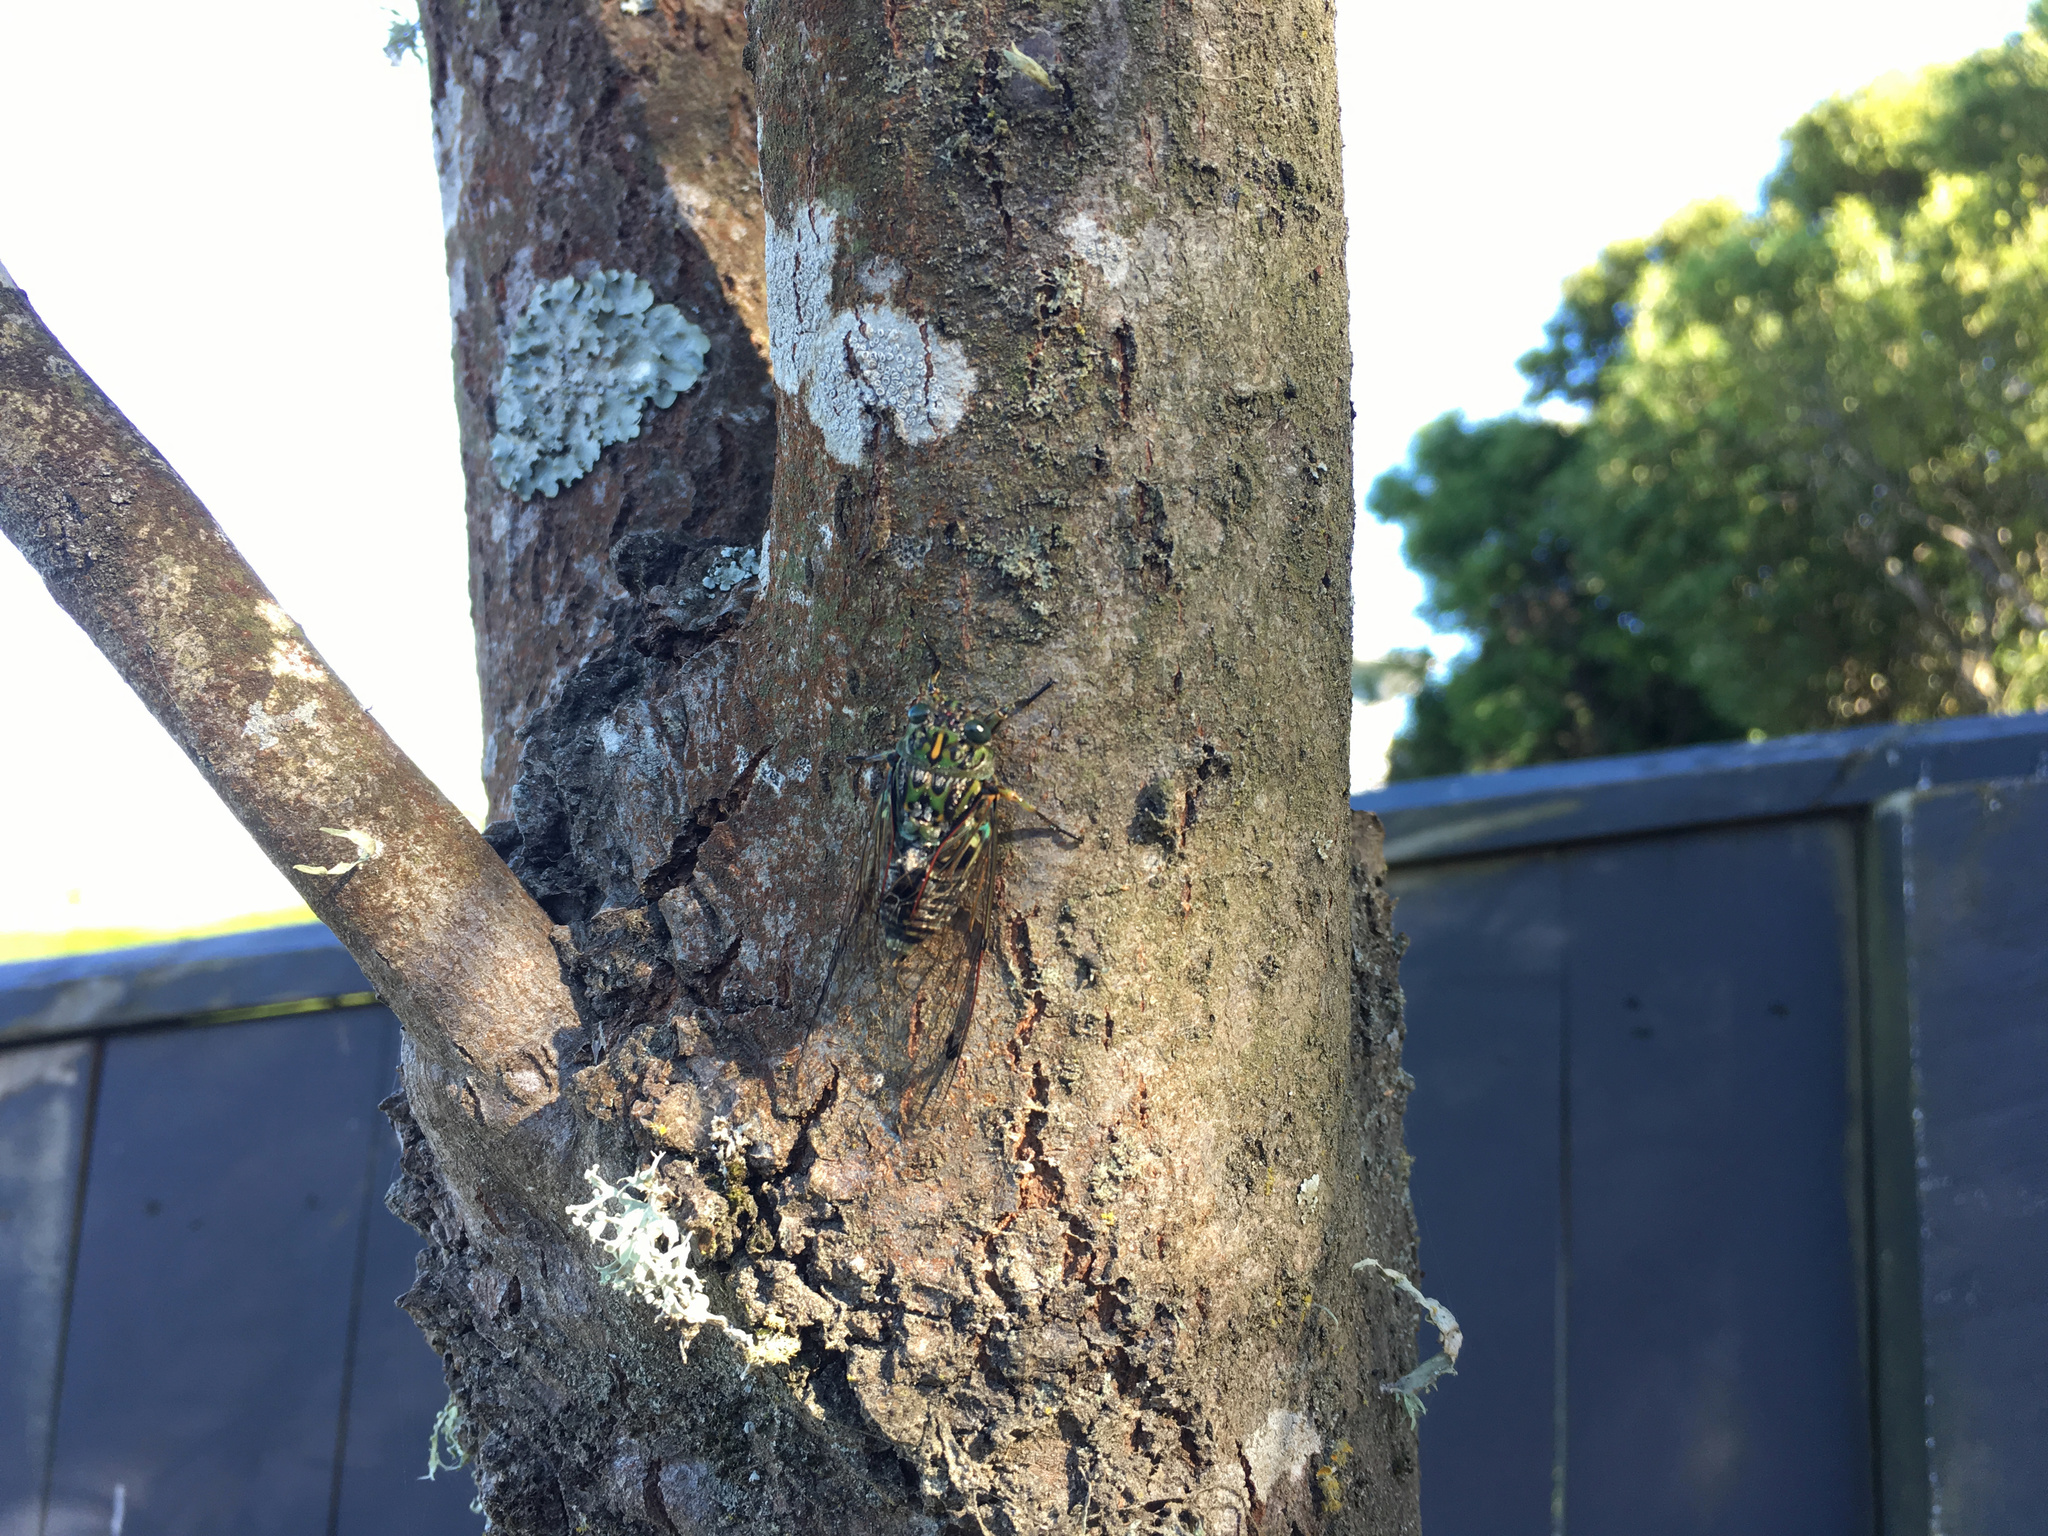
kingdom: Animalia
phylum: Arthropoda
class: Insecta
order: Hemiptera
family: Cicadidae
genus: Amphipsalta
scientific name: Amphipsalta zelandica
